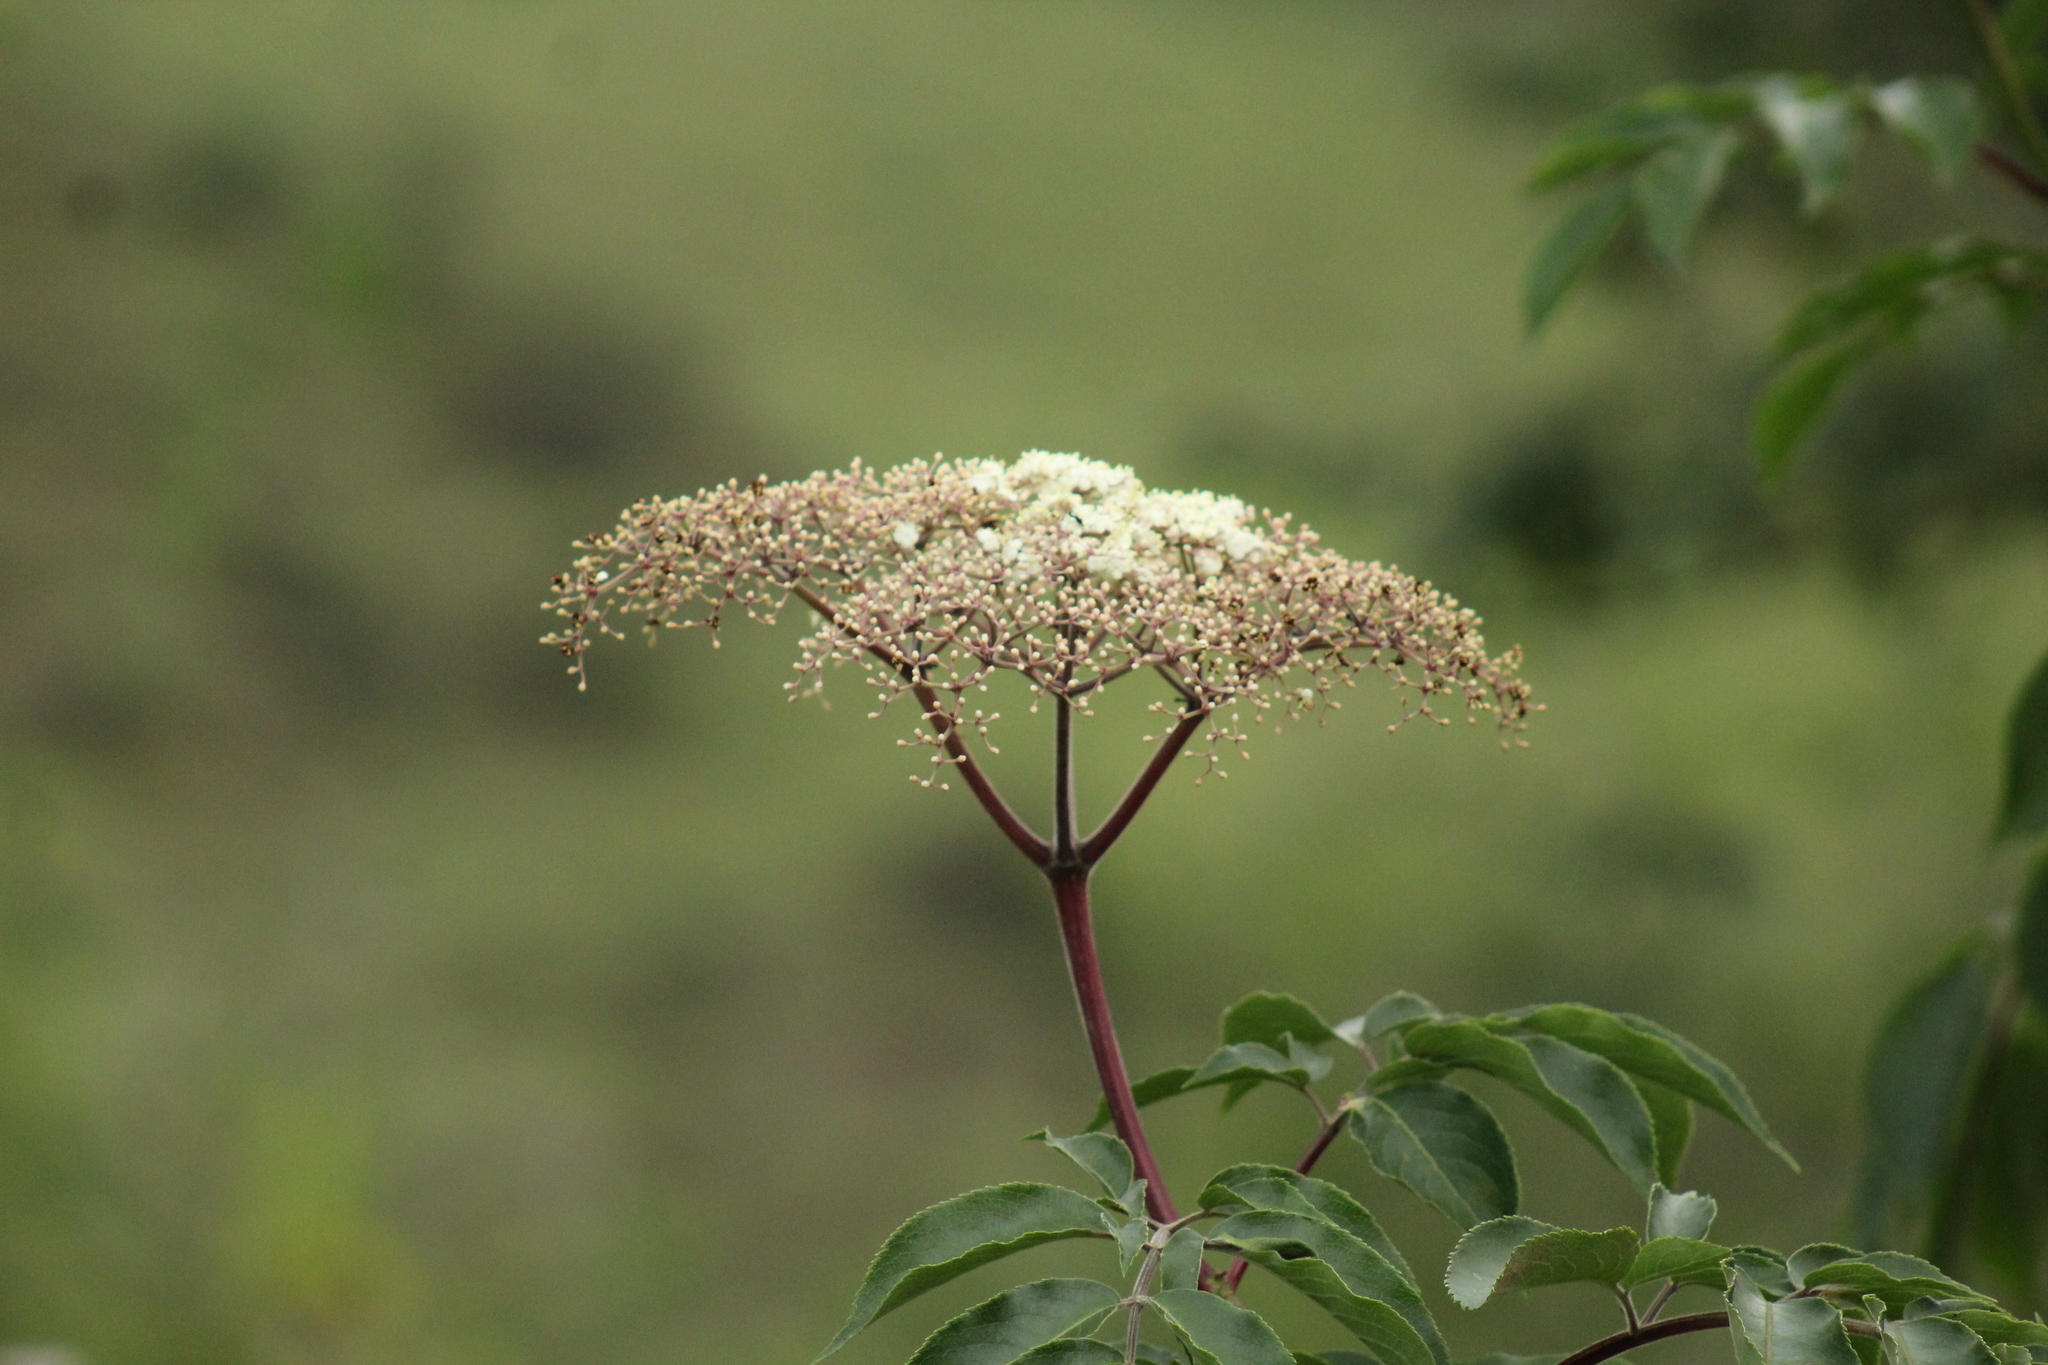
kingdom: Plantae
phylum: Tracheophyta
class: Magnoliopsida
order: Dipsacales
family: Viburnaceae
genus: Sambucus
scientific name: Sambucus canadensis
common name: American elder
